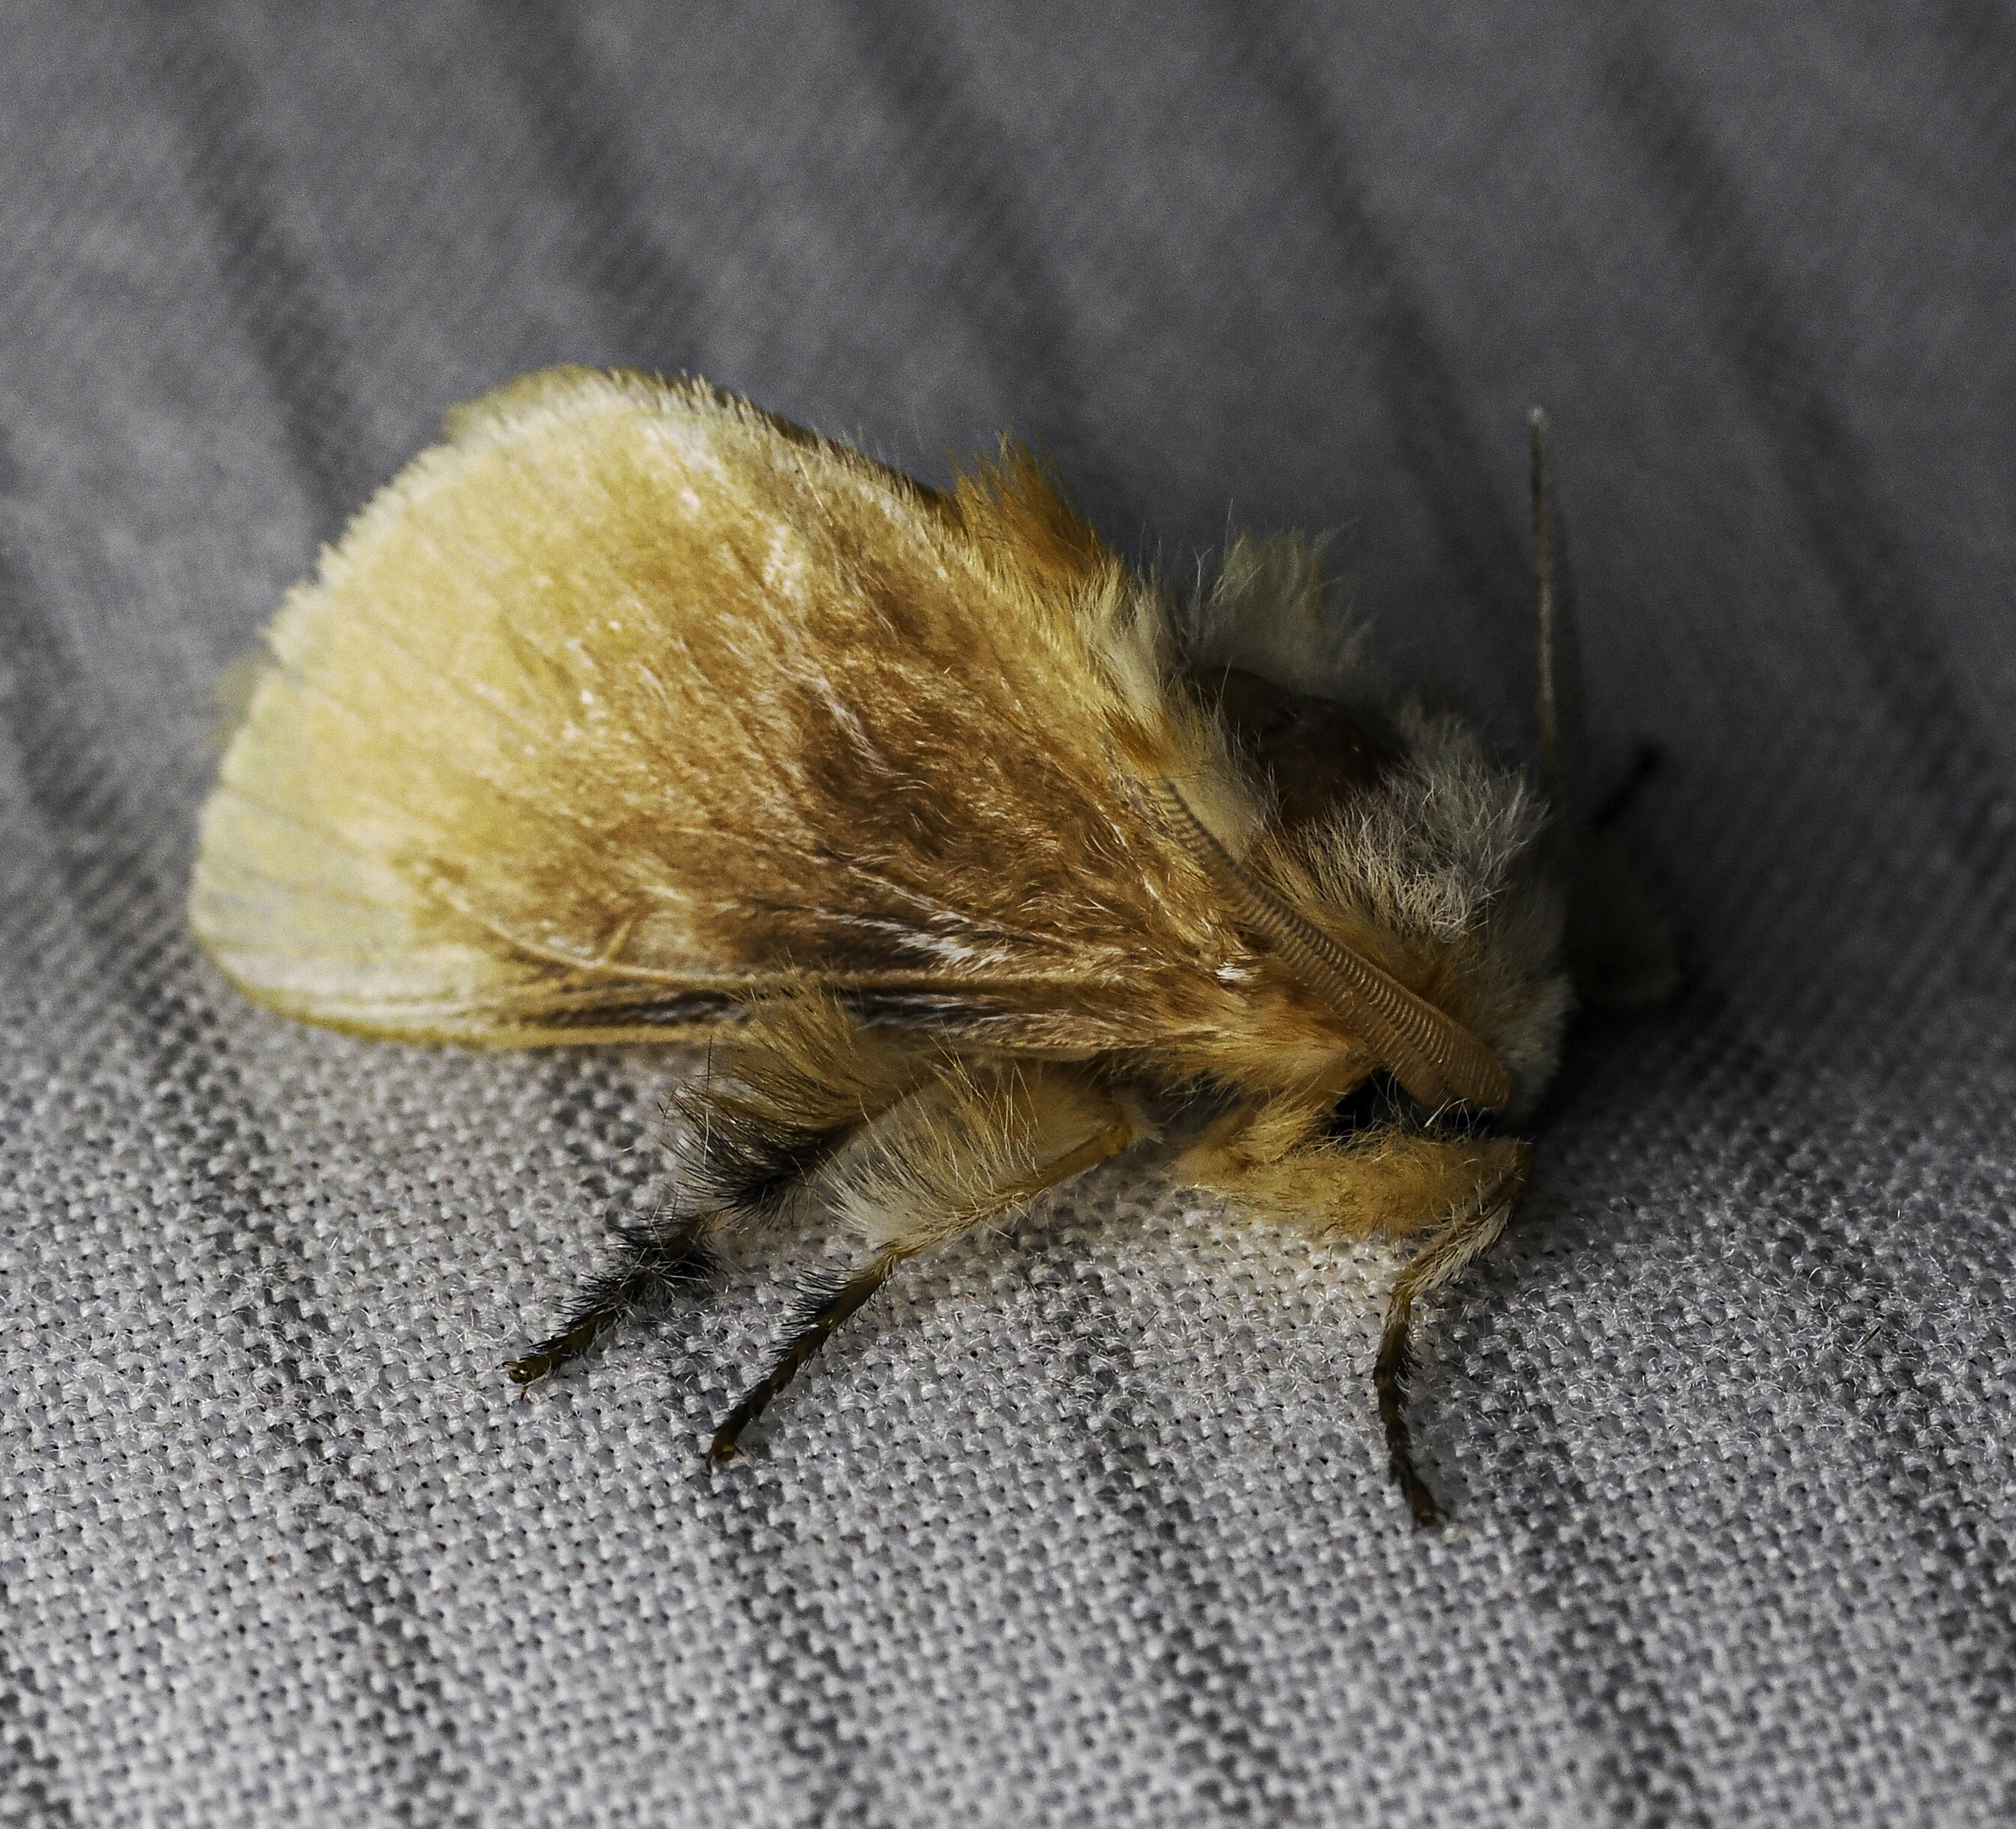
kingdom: Animalia
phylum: Arthropoda
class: Insecta
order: Lepidoptera
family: Megalopygidae
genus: Megalopyge
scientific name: Megalopyge opercularis
